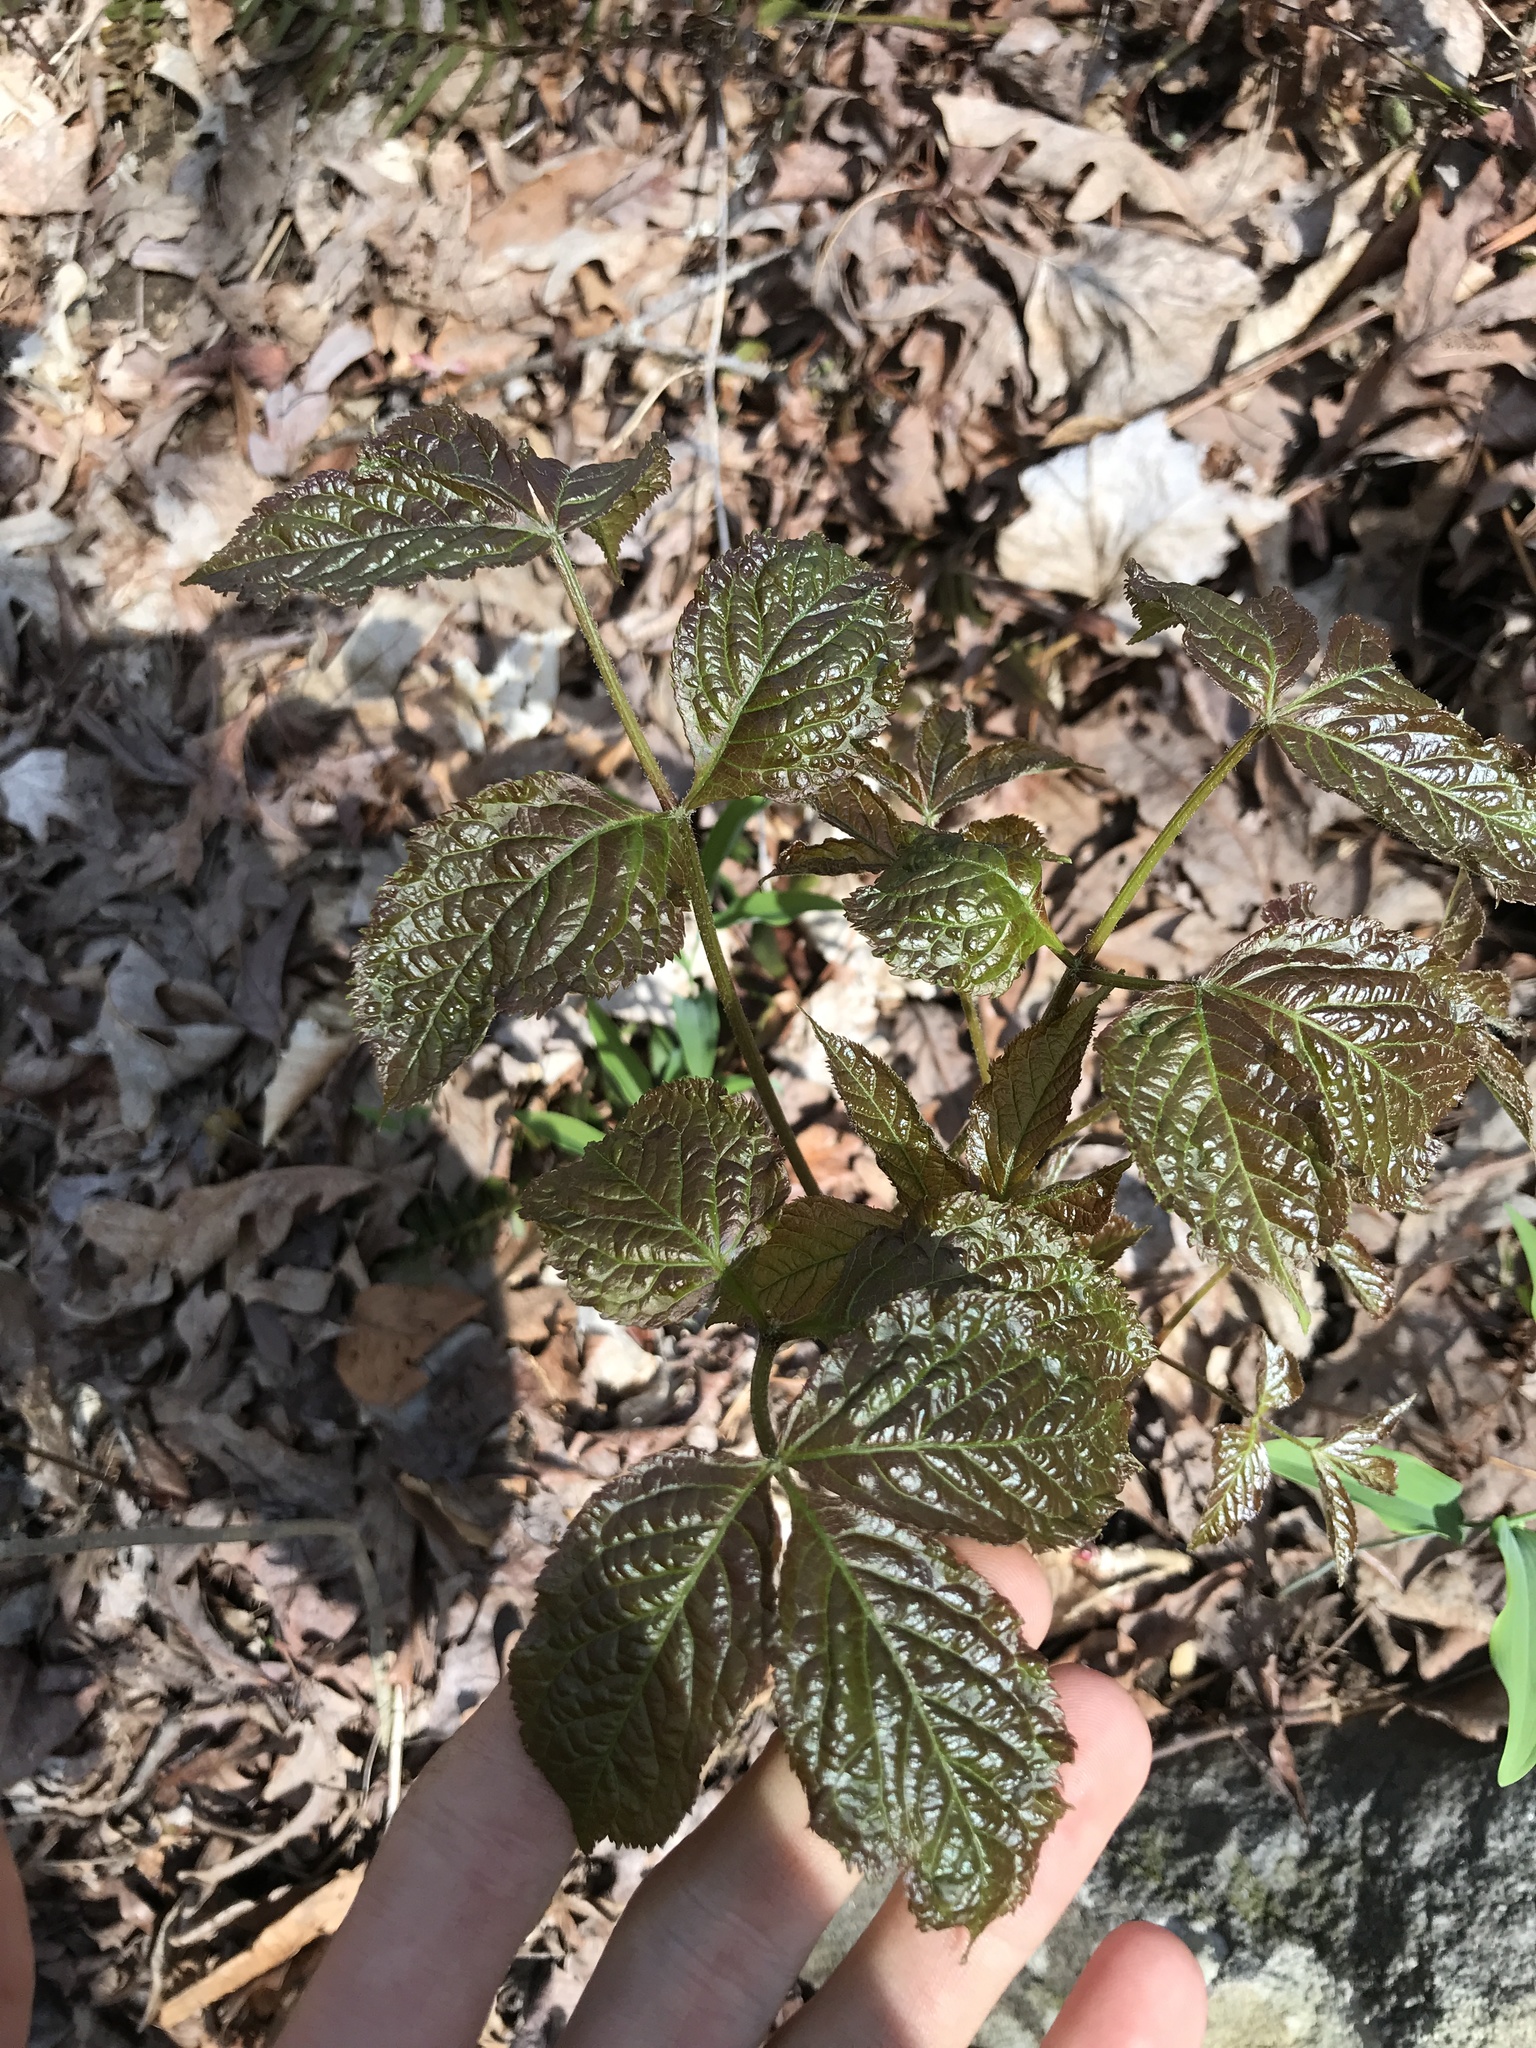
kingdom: Plantae
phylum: Tracheophyta
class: Magnoliopsida
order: Apiales
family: Araliaceae
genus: Aralia
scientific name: Aralia nudicaulis
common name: Wild sarsaparilla
